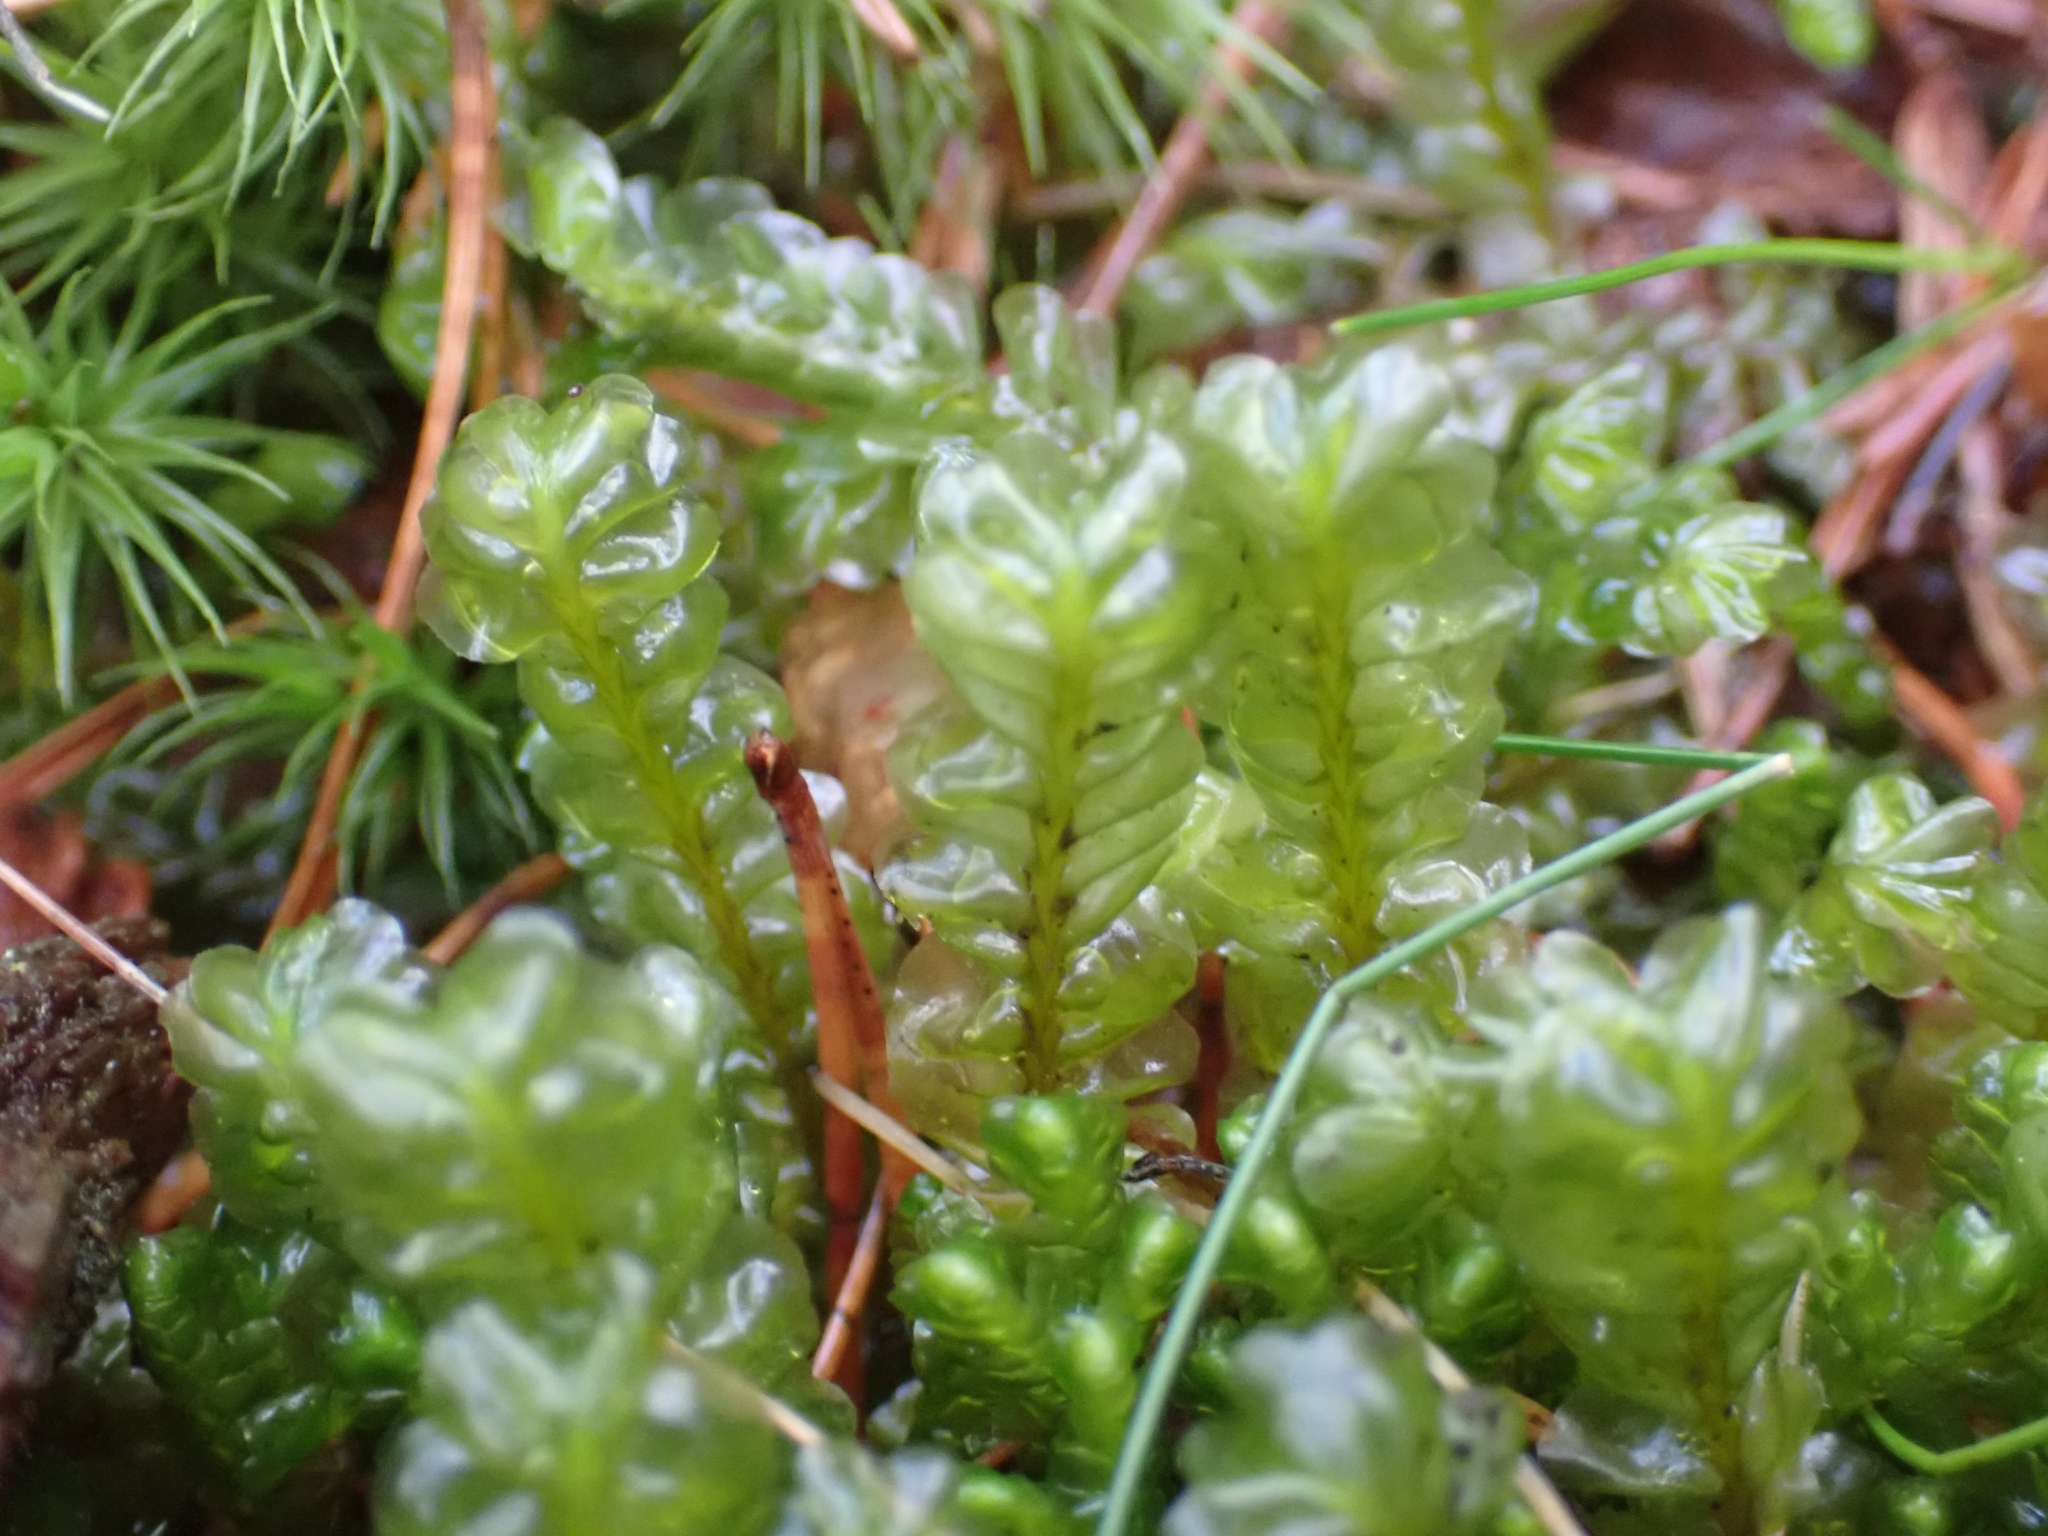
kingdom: Plantae
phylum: Marchantiophyta
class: Jungermanniopsida
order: Jungermanniales
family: Plagiochilaceae
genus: Plagiochila
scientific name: Plagiochila asplenioides
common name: Greater featherwort
